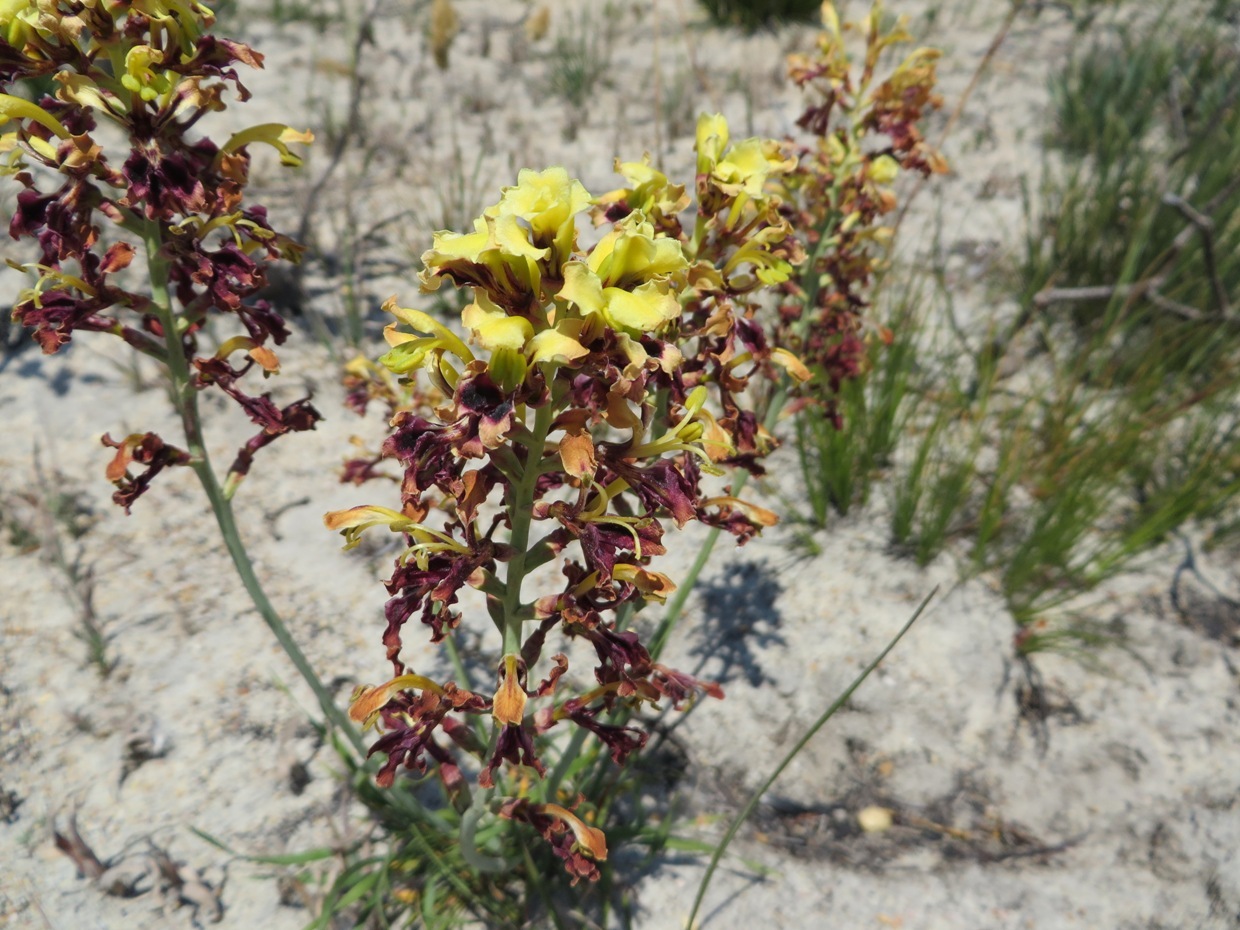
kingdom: Plantae
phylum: Tracheophyta
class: Liliopsida
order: Asparagales
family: Iridaceae
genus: Tritoniopsis
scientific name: Tritoniopsis parviflora
